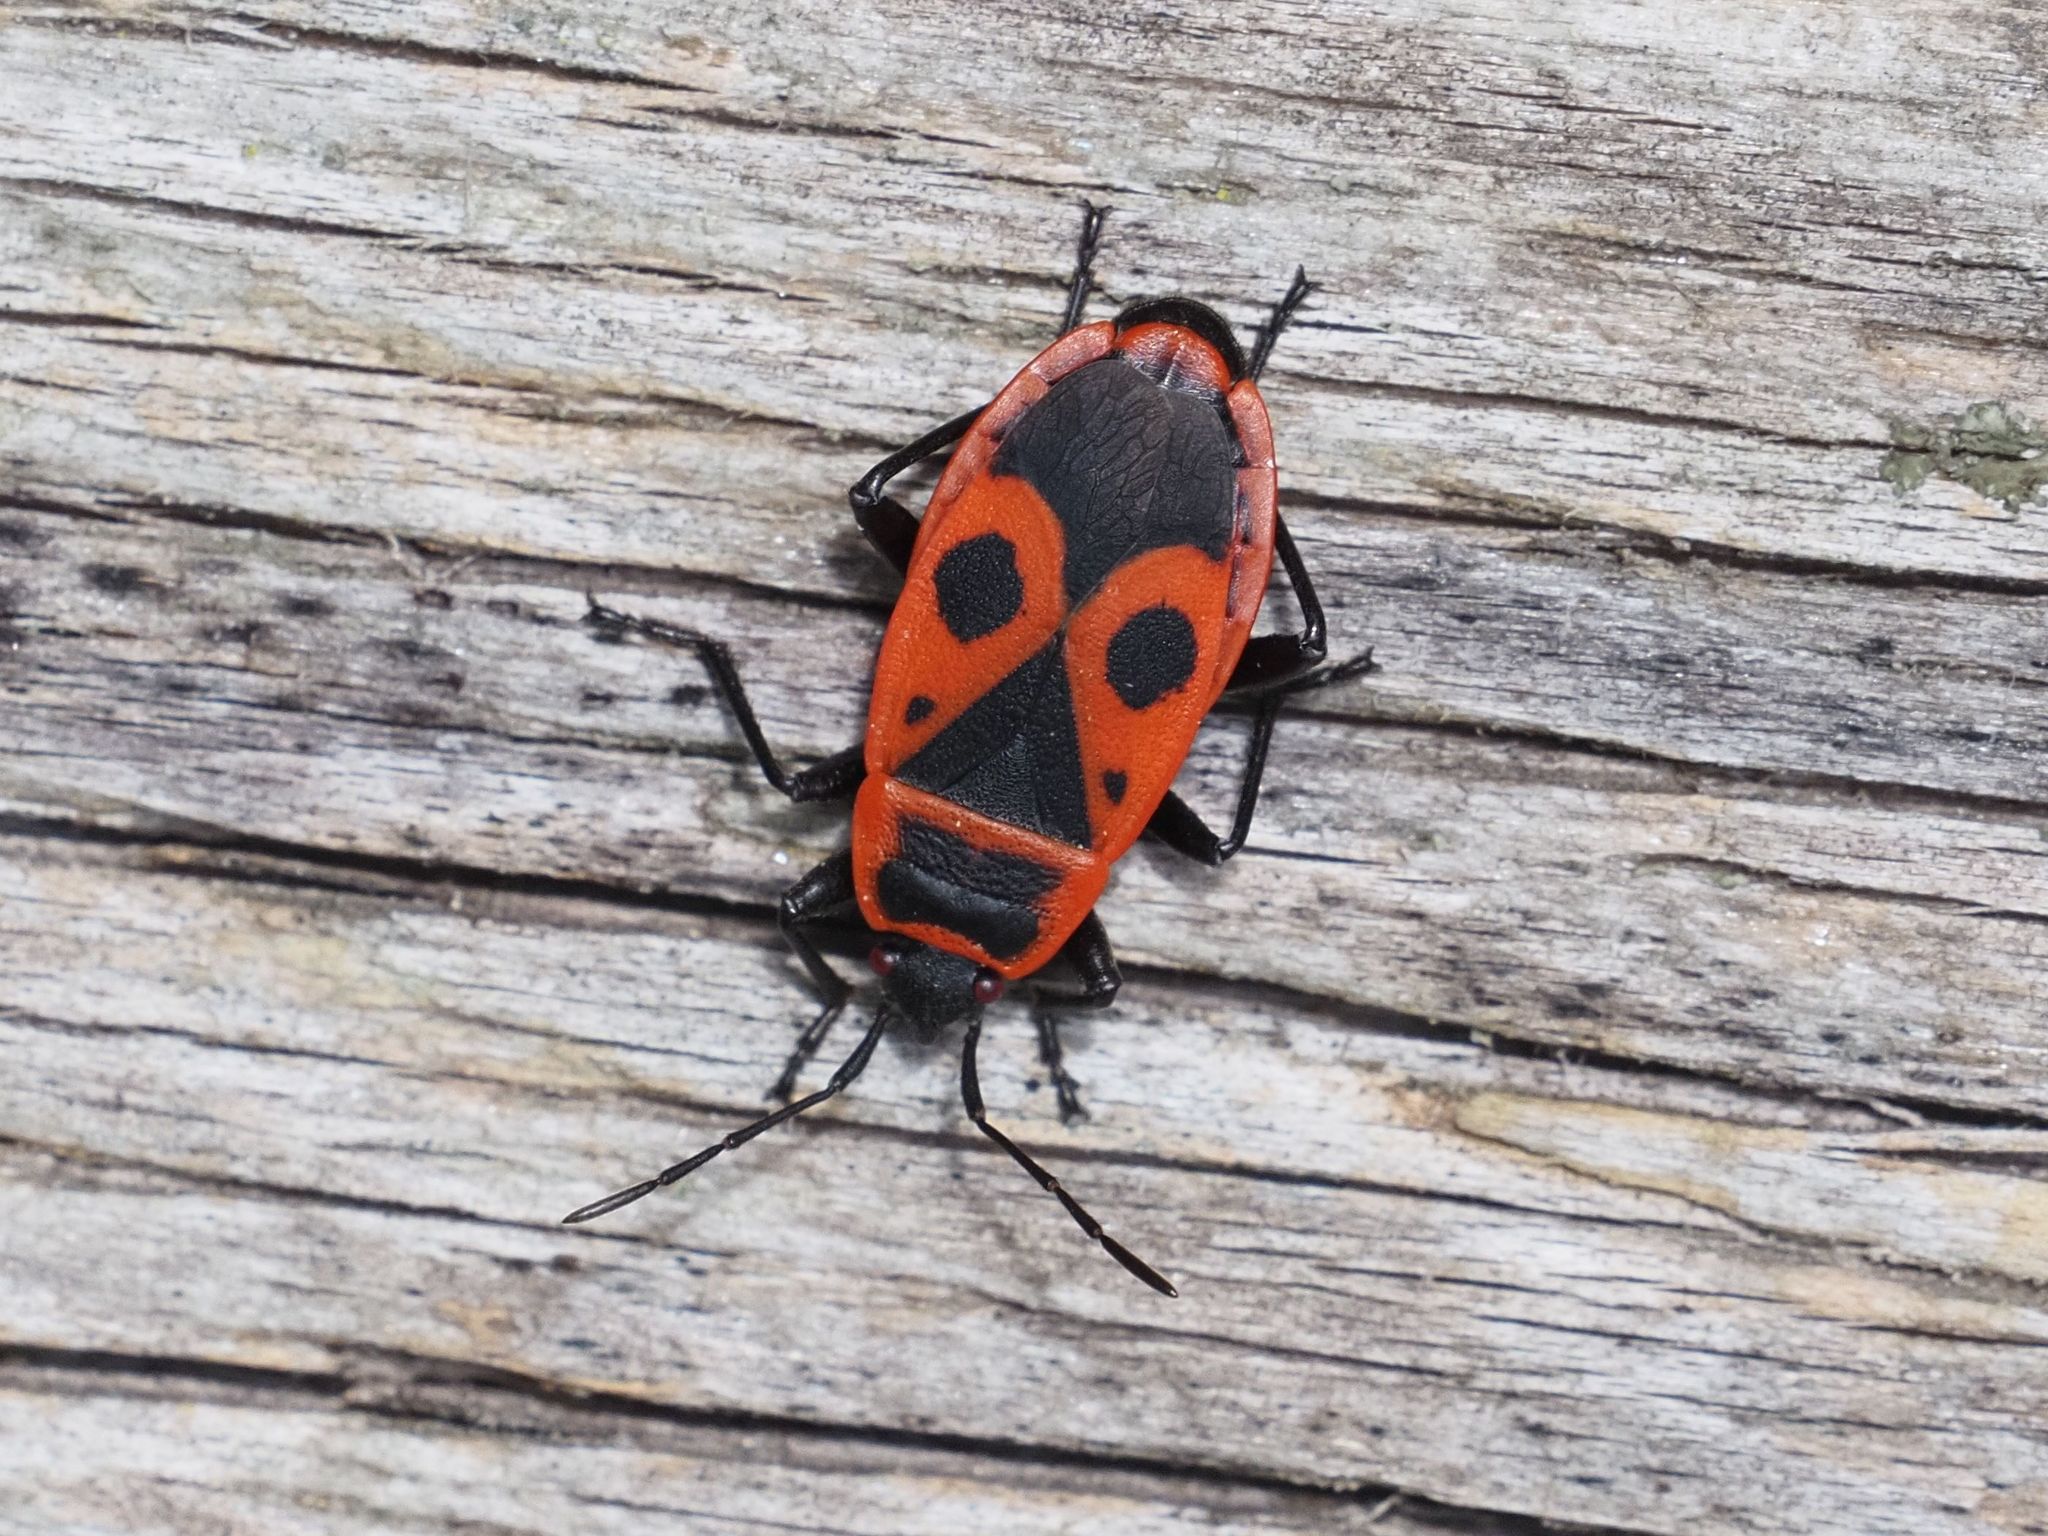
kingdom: Animalia
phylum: Arthropoda
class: Insecta
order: Hemiptera
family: Pyrrhocoridae
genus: Pyrrhocoris
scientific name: Pyrrhocoris apterus
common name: Firebug
